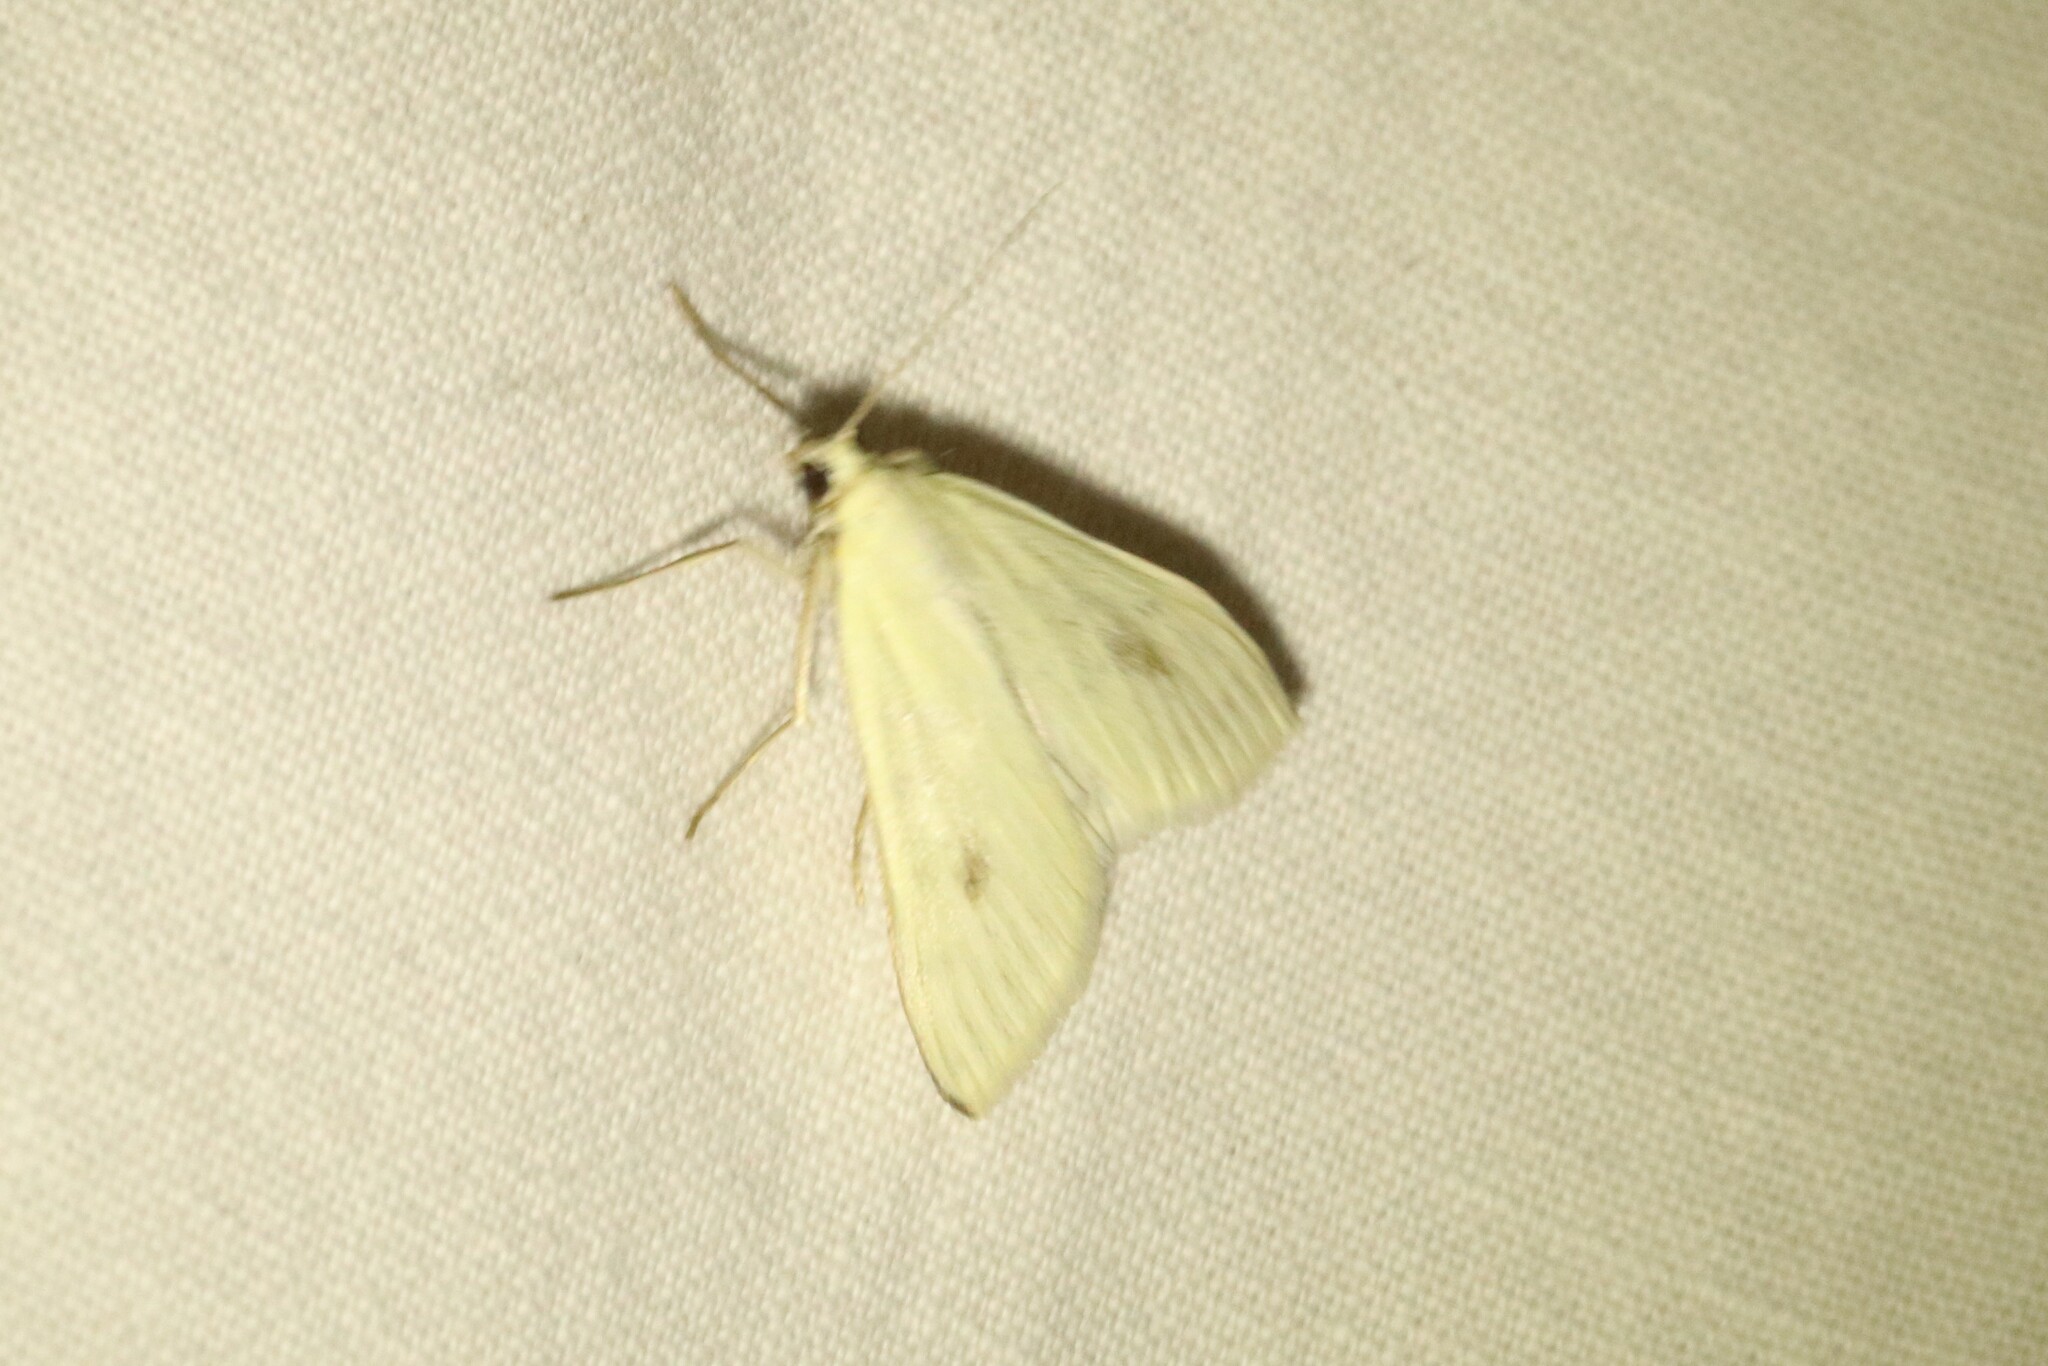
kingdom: Animalia
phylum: Arthropoda
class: Insecta
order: Lepidoptera
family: Crambidae
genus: Sitochroa
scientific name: Sitochroa palealis
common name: Greenish-yellow sitochroa moth
